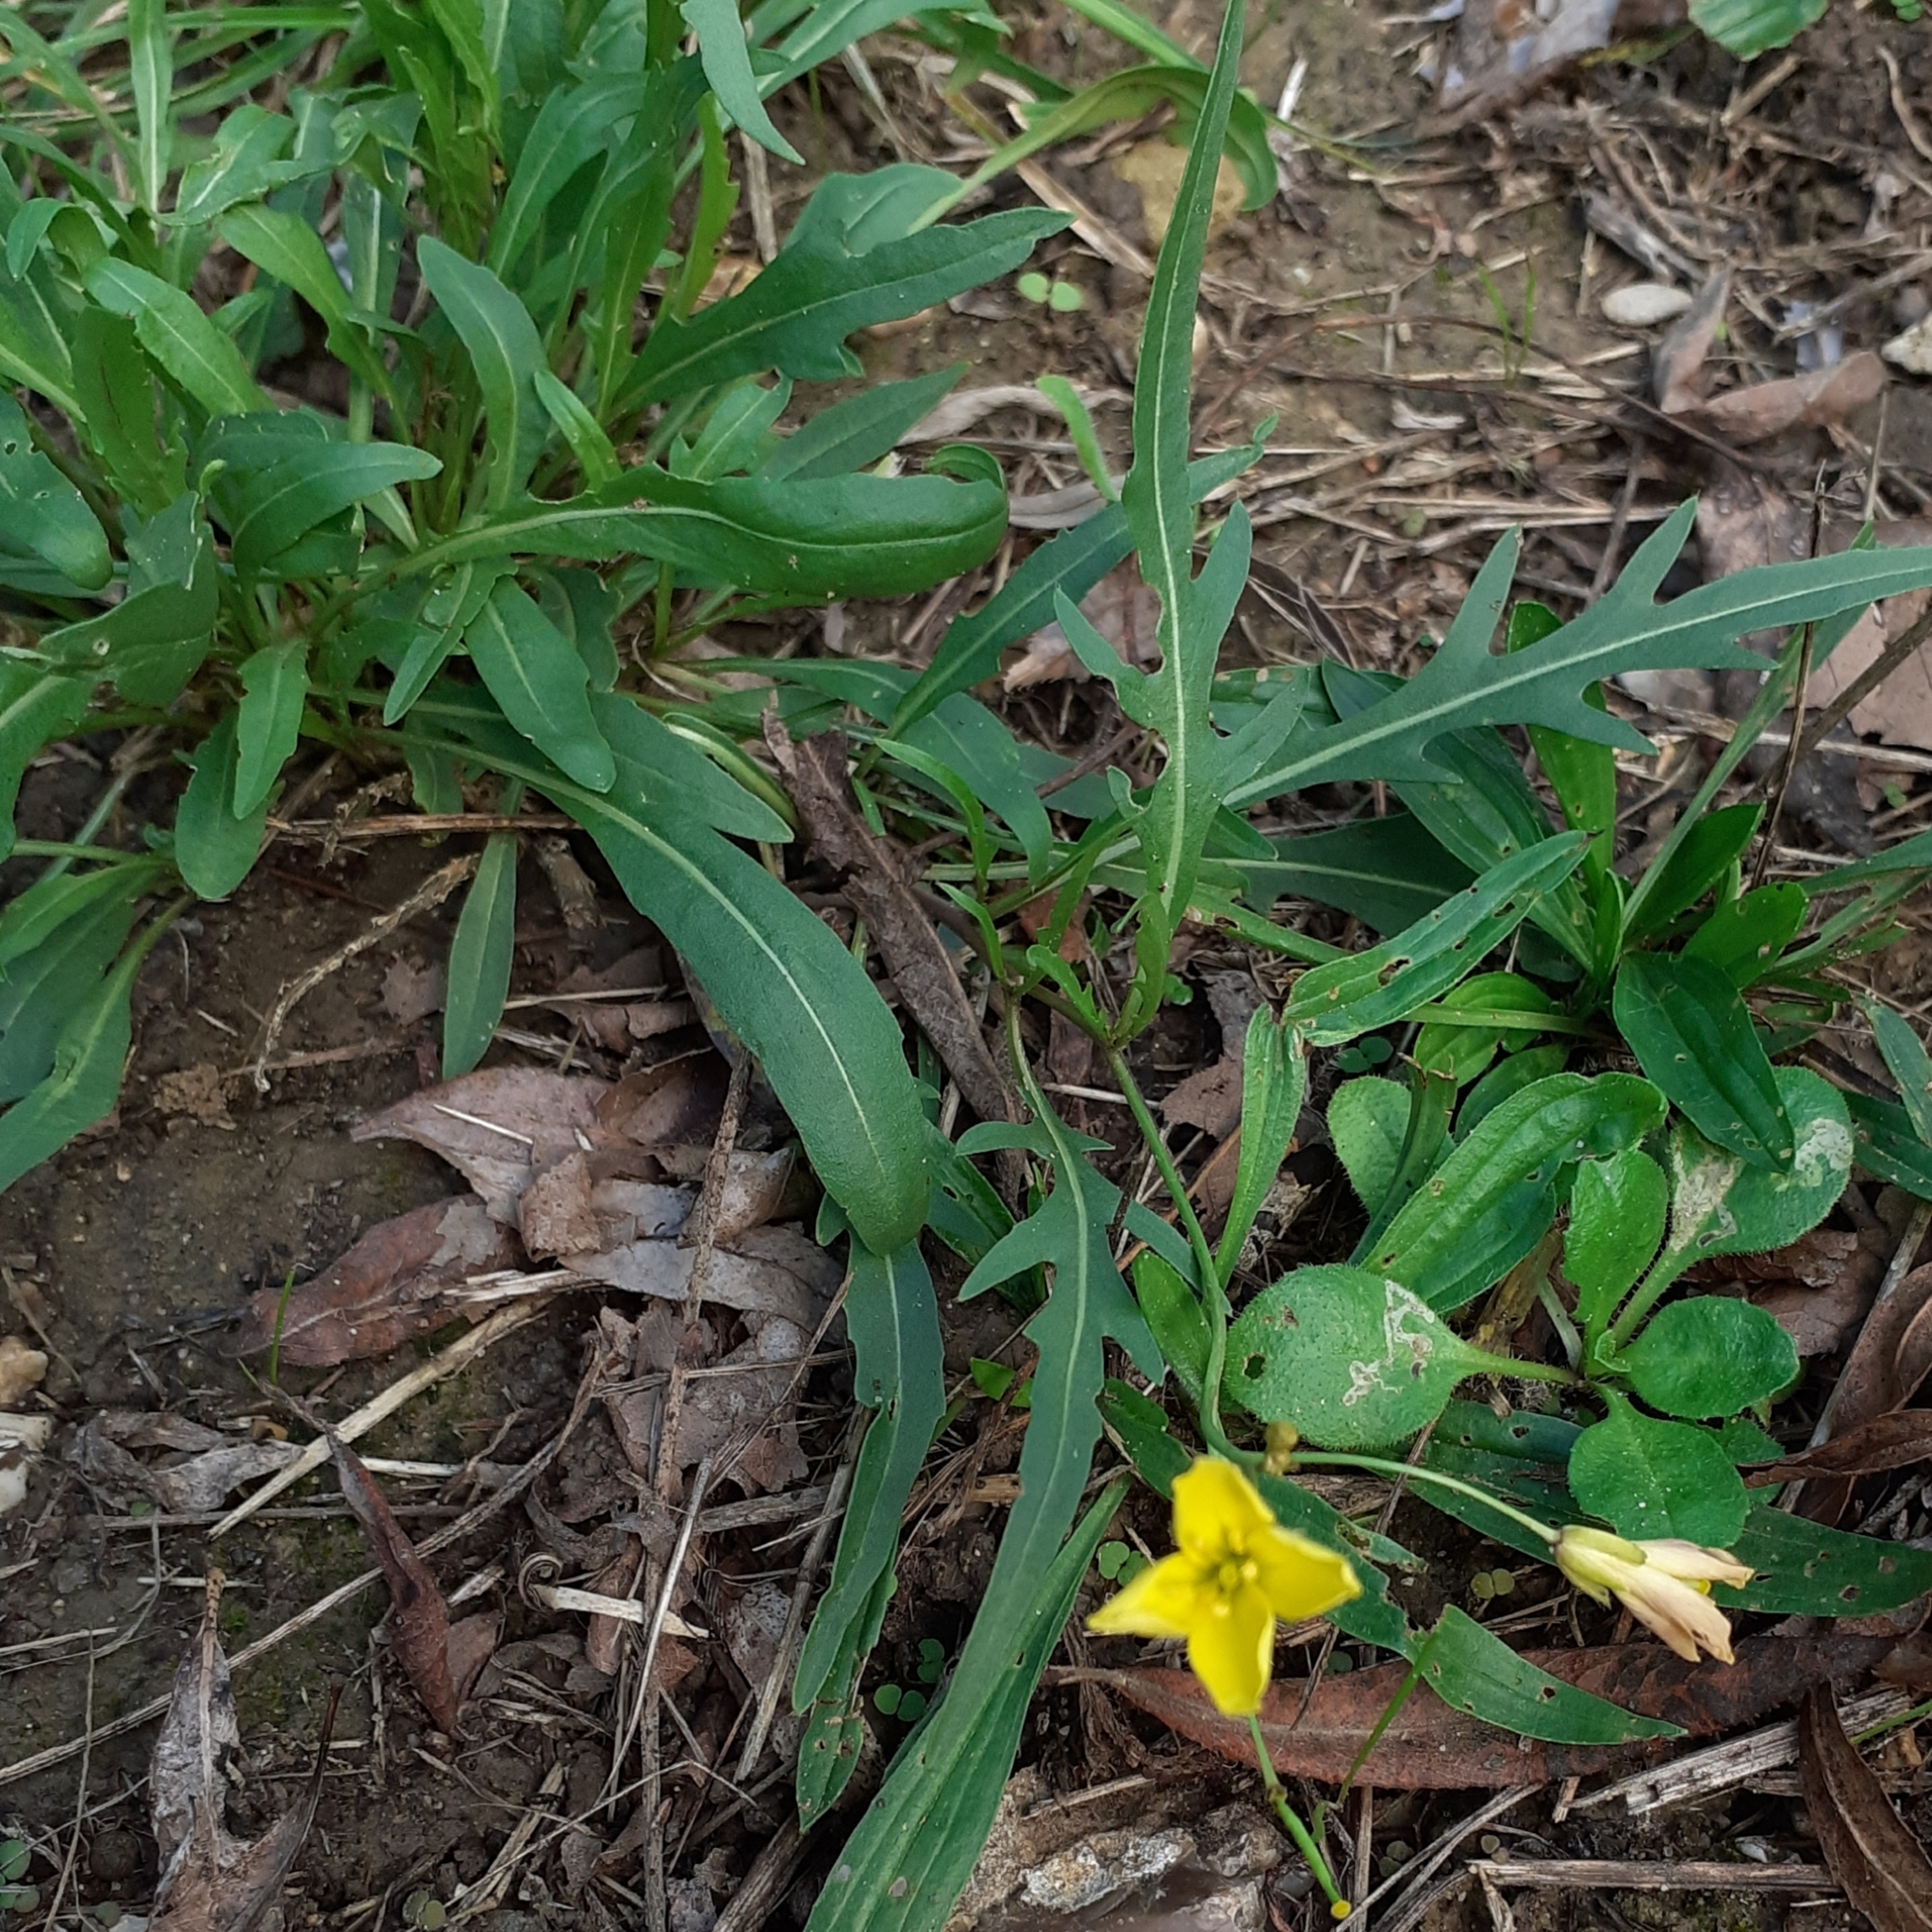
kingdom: Plantae
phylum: Tracheophyta
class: Magnoliopsida
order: Brassicales
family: Brassicaceae
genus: Diplotaxis
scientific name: Diplotaxis tenuifolia
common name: Perennial wall-rocket
